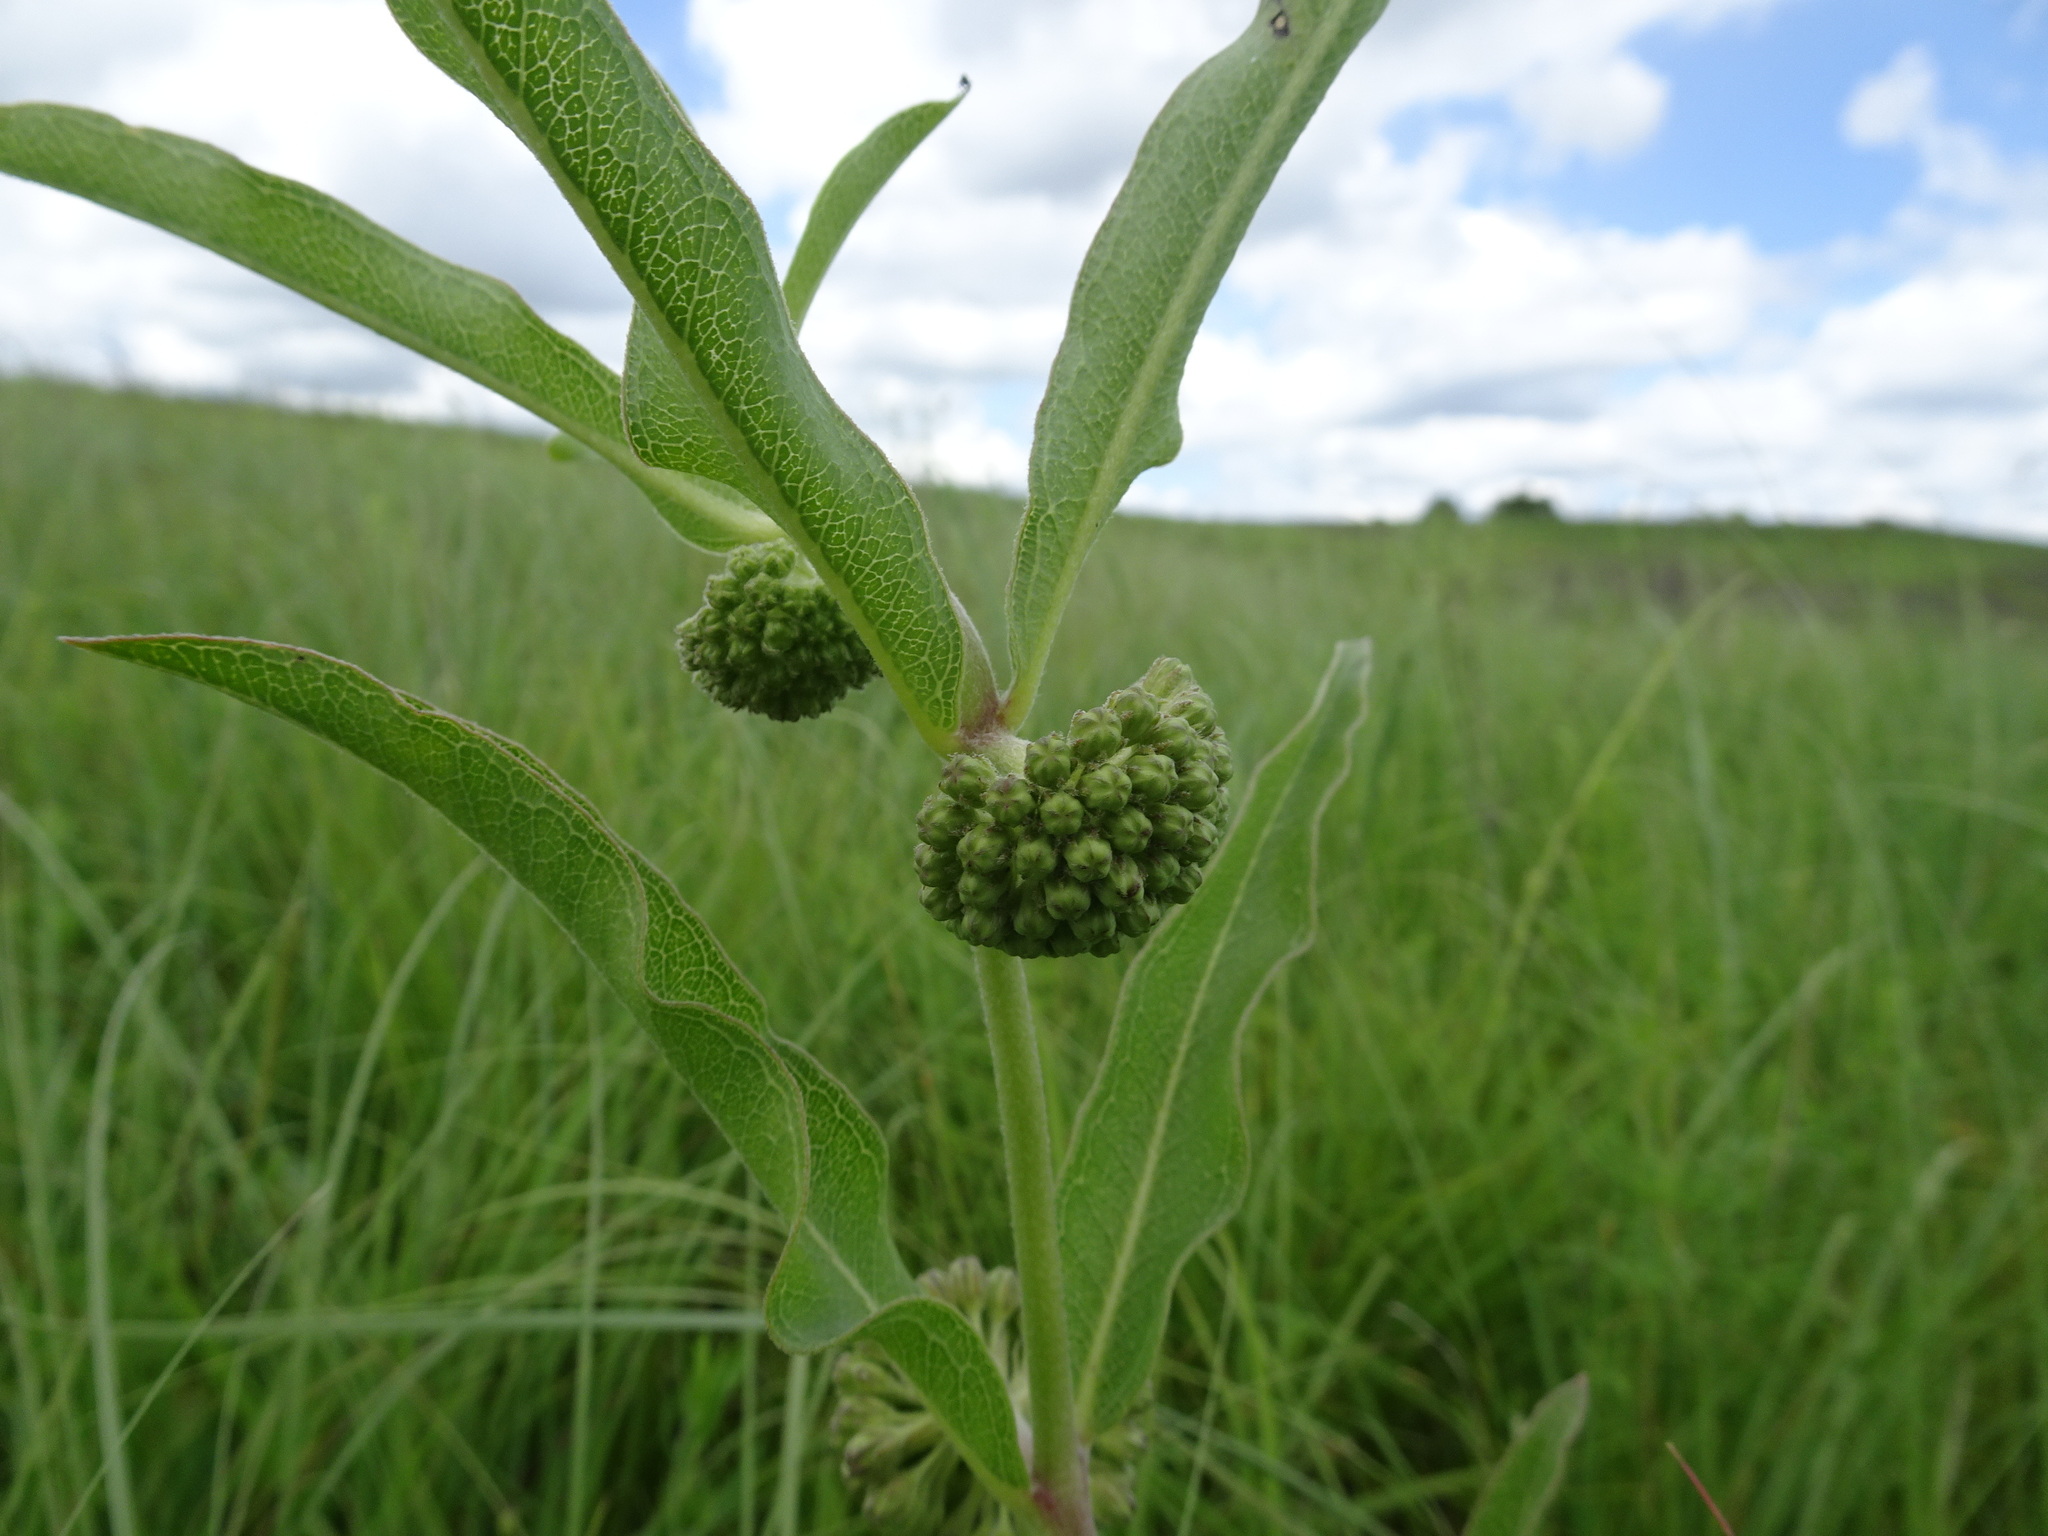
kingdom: Plantae
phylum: Tracheophyta
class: Magnoliopsida
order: Gentianales
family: Apocynaceae
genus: Asclepias
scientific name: Asclepias viridiflora
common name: Green comet milkweed
